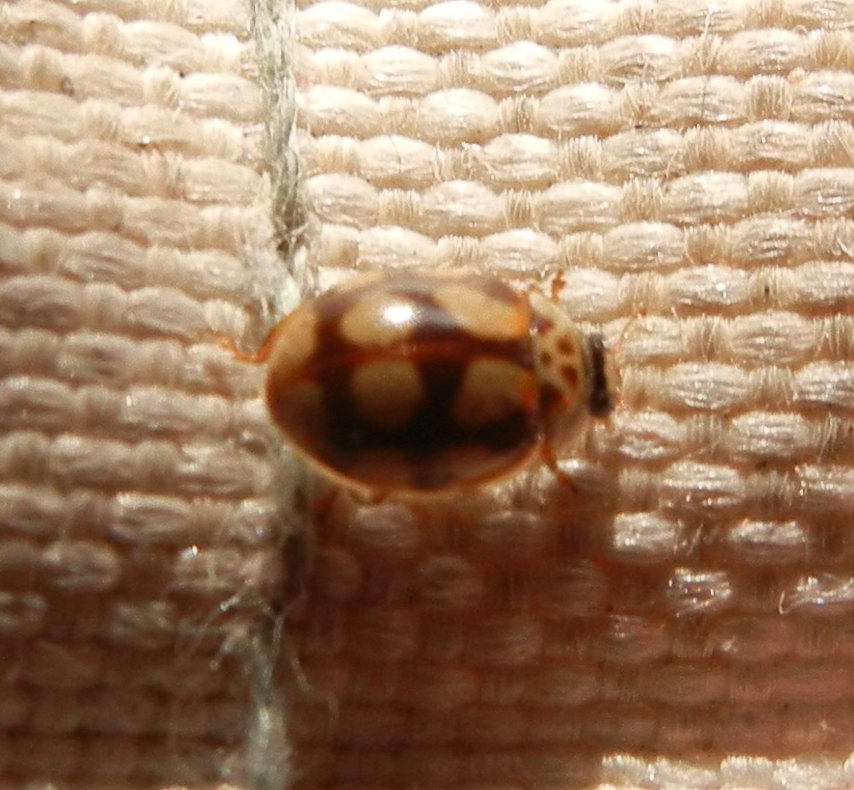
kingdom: Animalia
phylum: Arthropoda
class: Insecta
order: Coleoptera
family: Coccinellidae
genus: Adalia
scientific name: Adalia decempunctata
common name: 10-spot ladybird
